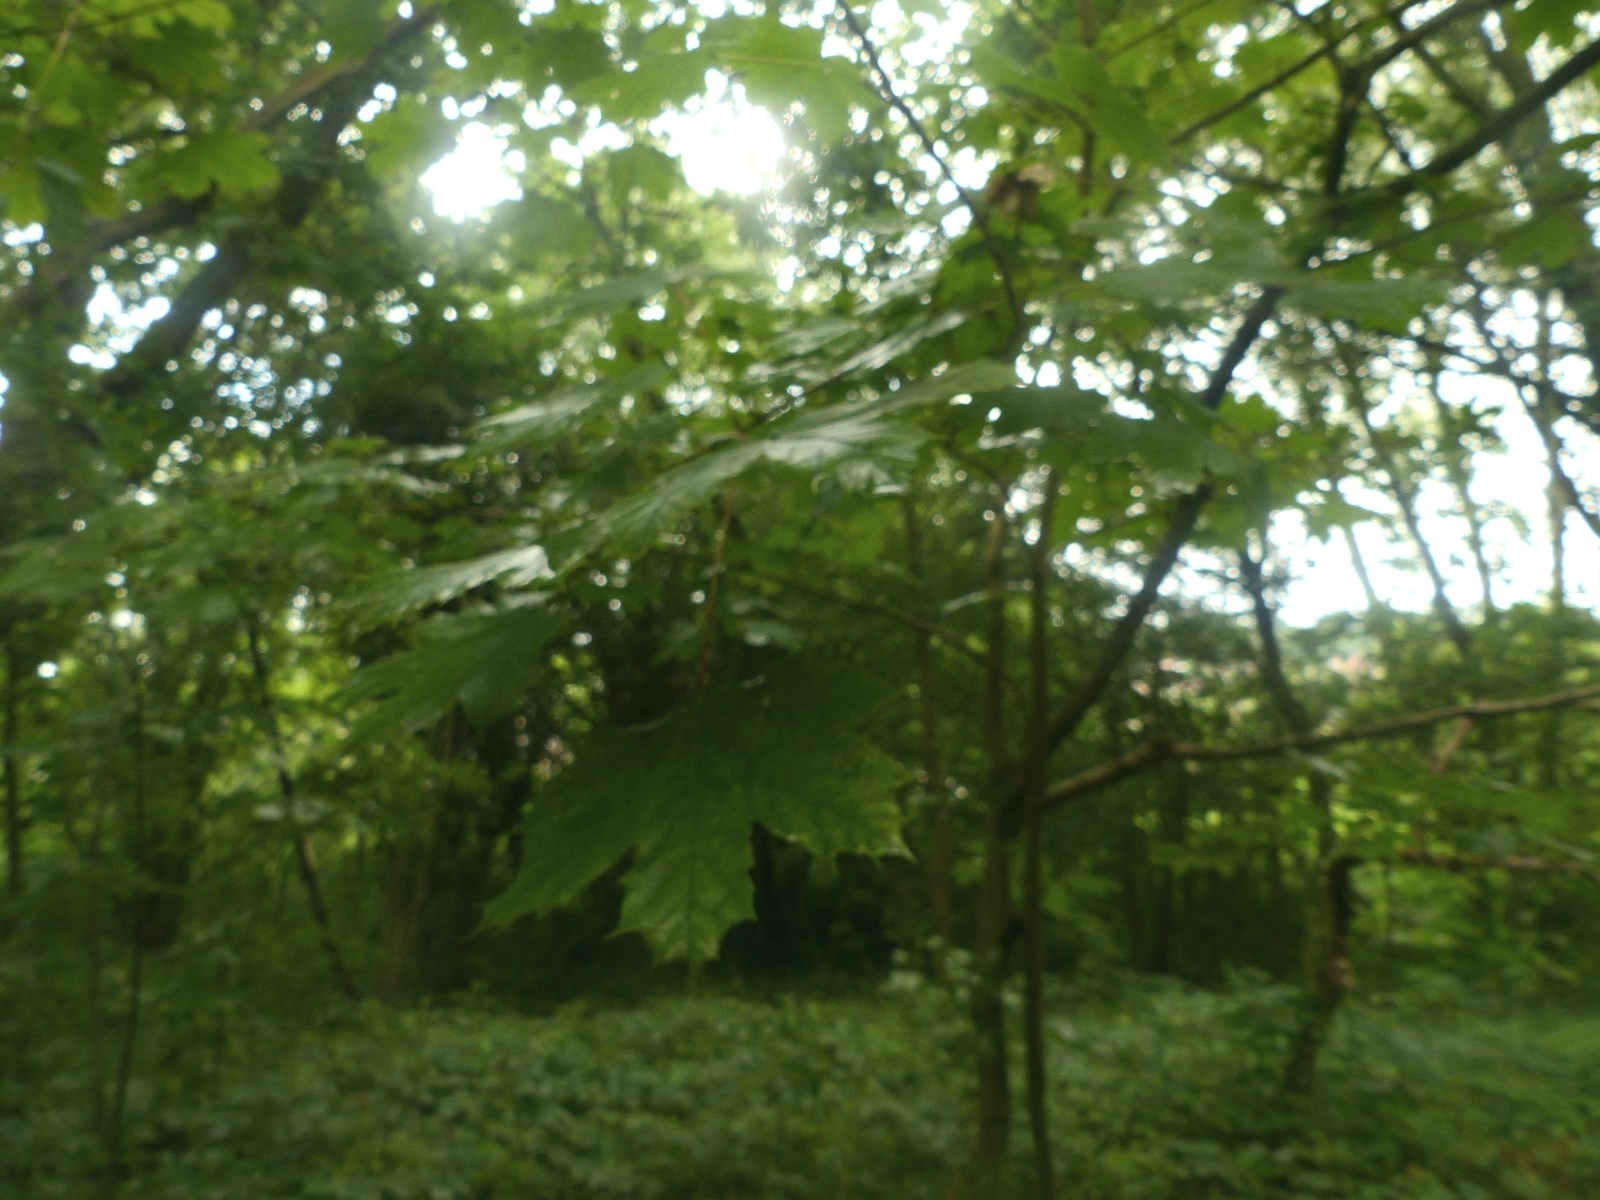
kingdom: Plantae
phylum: Tracheophyta
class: Magnoliopsida
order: Sapindales
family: Sapindaceae
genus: Acer
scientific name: Acer pseudoplatanus
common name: Sycamore
